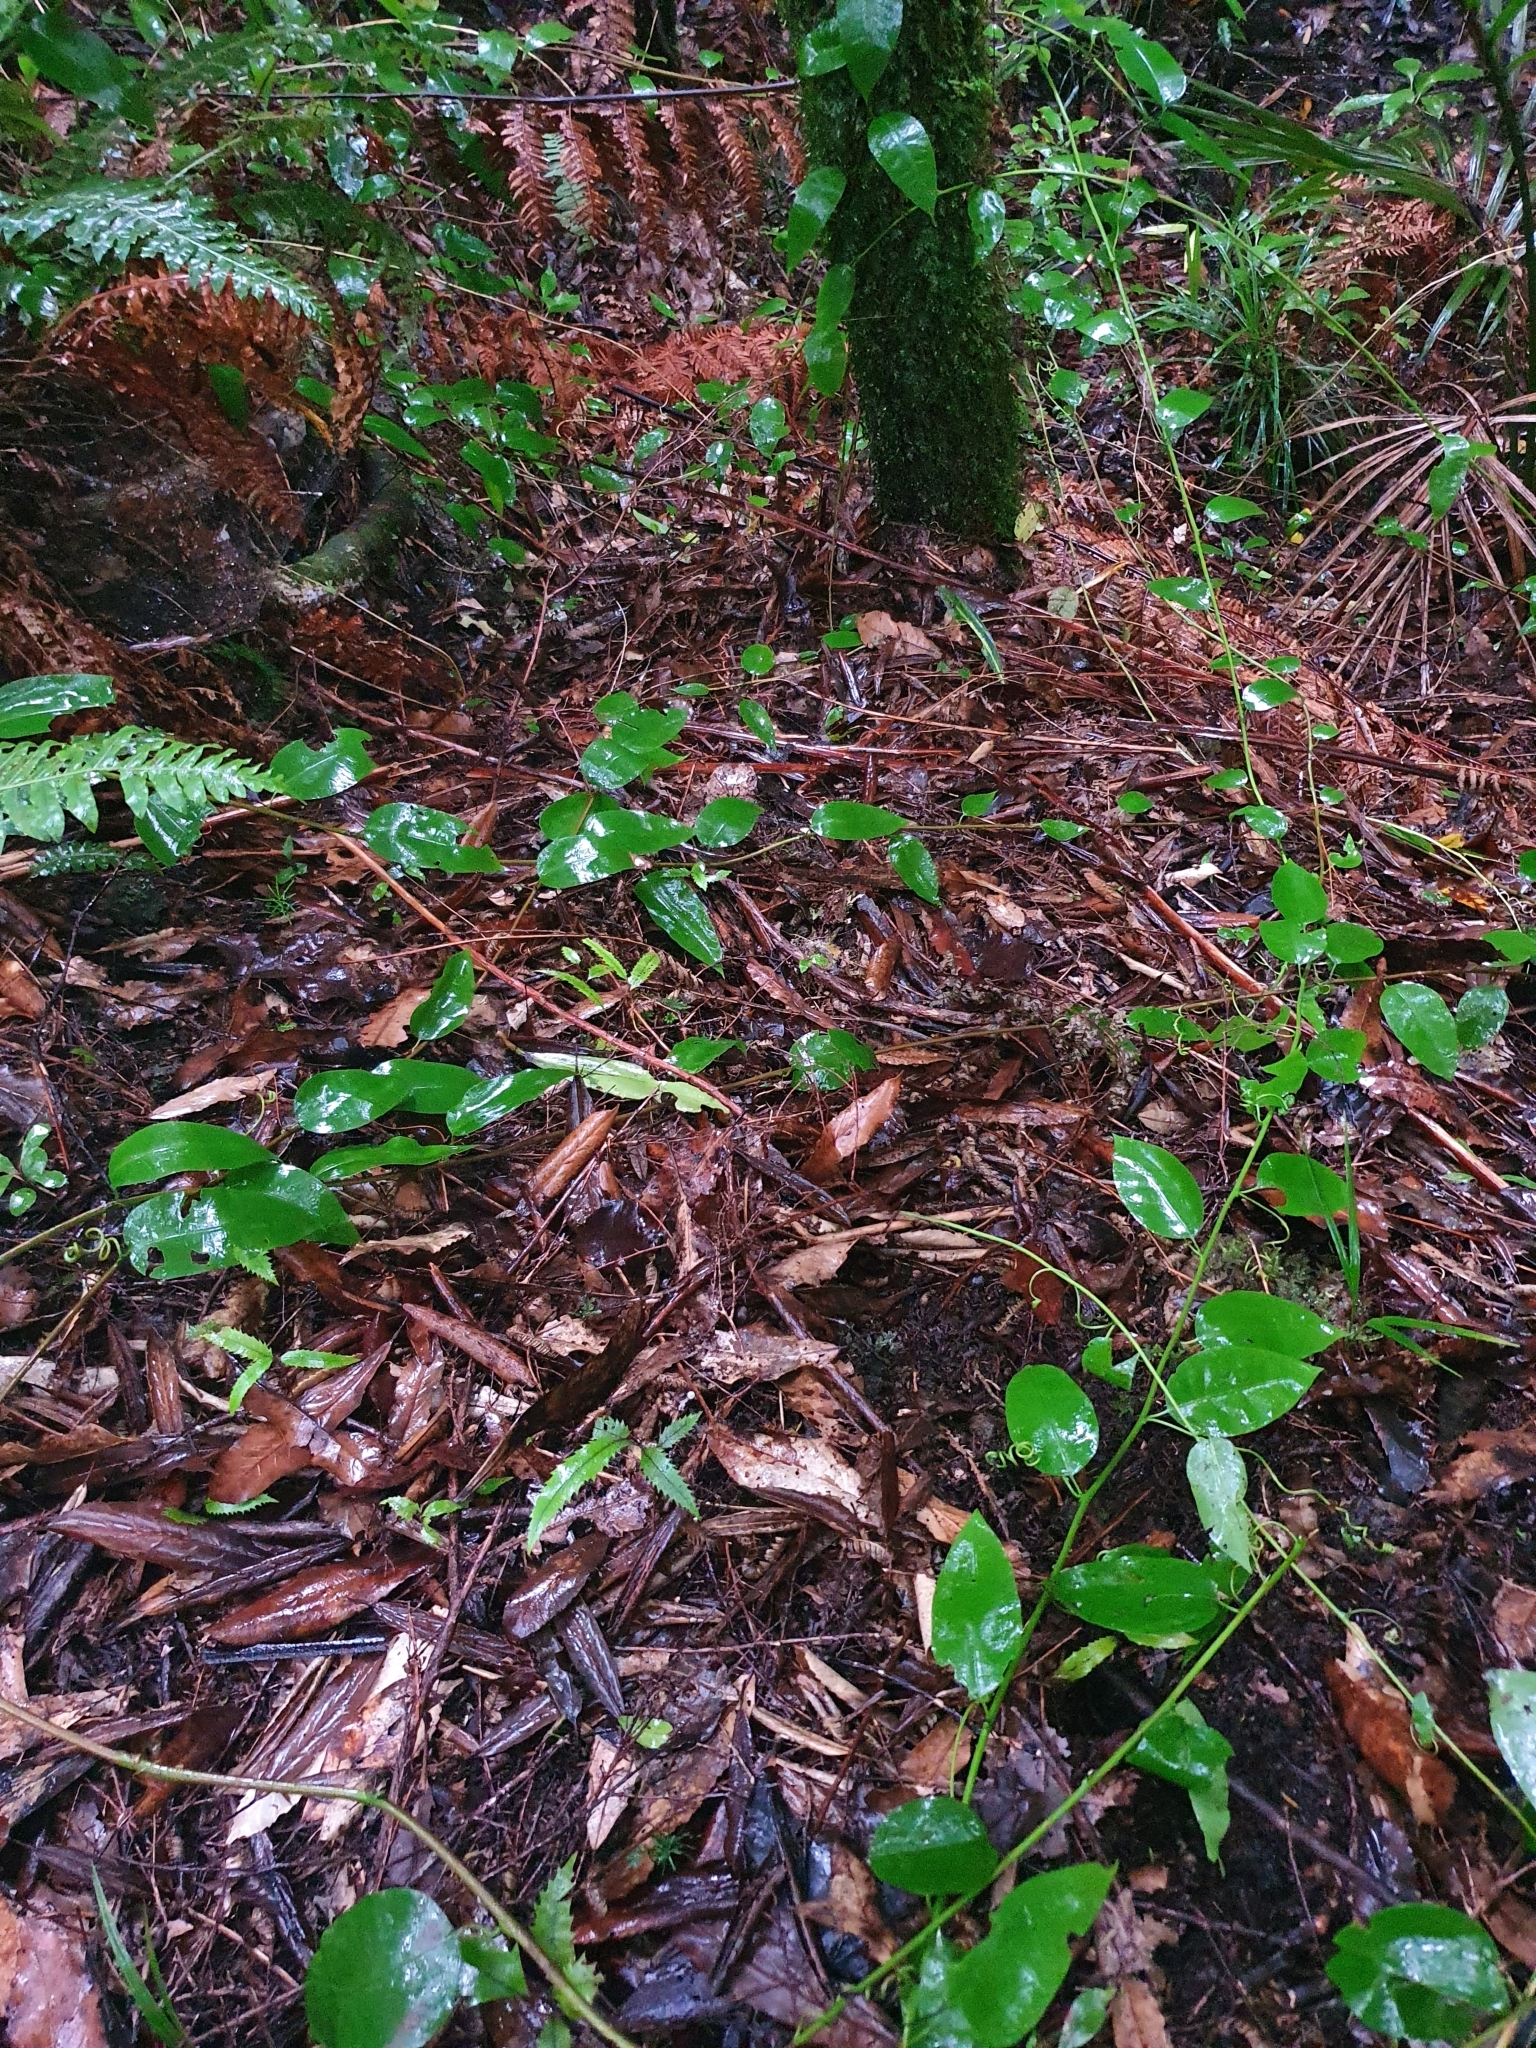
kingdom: Plantae
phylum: Tracheophyta
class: Magnoliopsida
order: Malpighiales
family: Passifloraceae
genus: Passiflora
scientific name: Passiflora tetrandra
